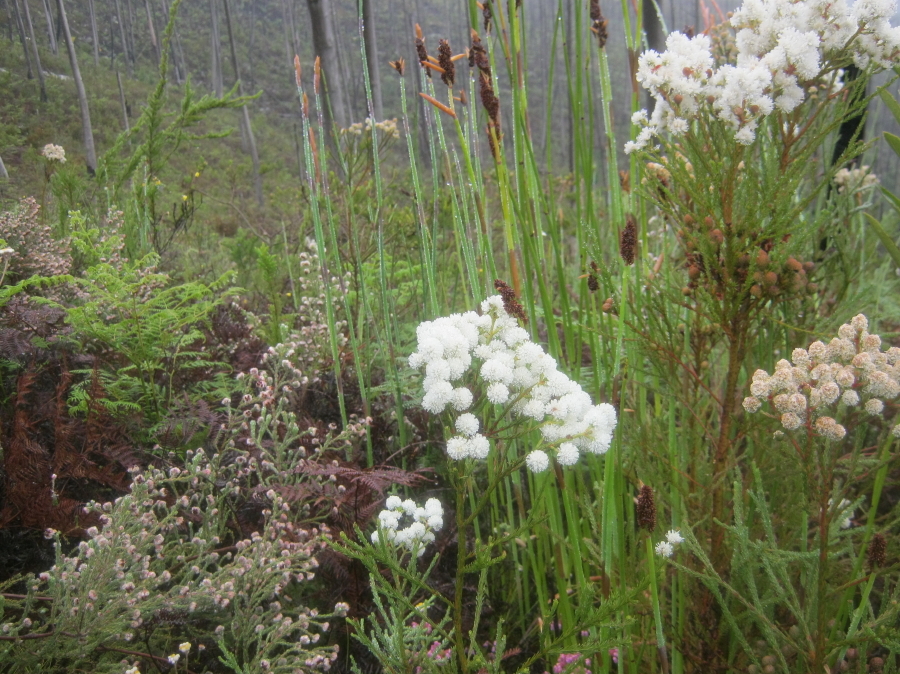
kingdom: Plantae
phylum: Tracheophyta
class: Magnoliopsida
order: Bruniales
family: Bruniaceae
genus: Berzelia
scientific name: Berzelia intermedia
